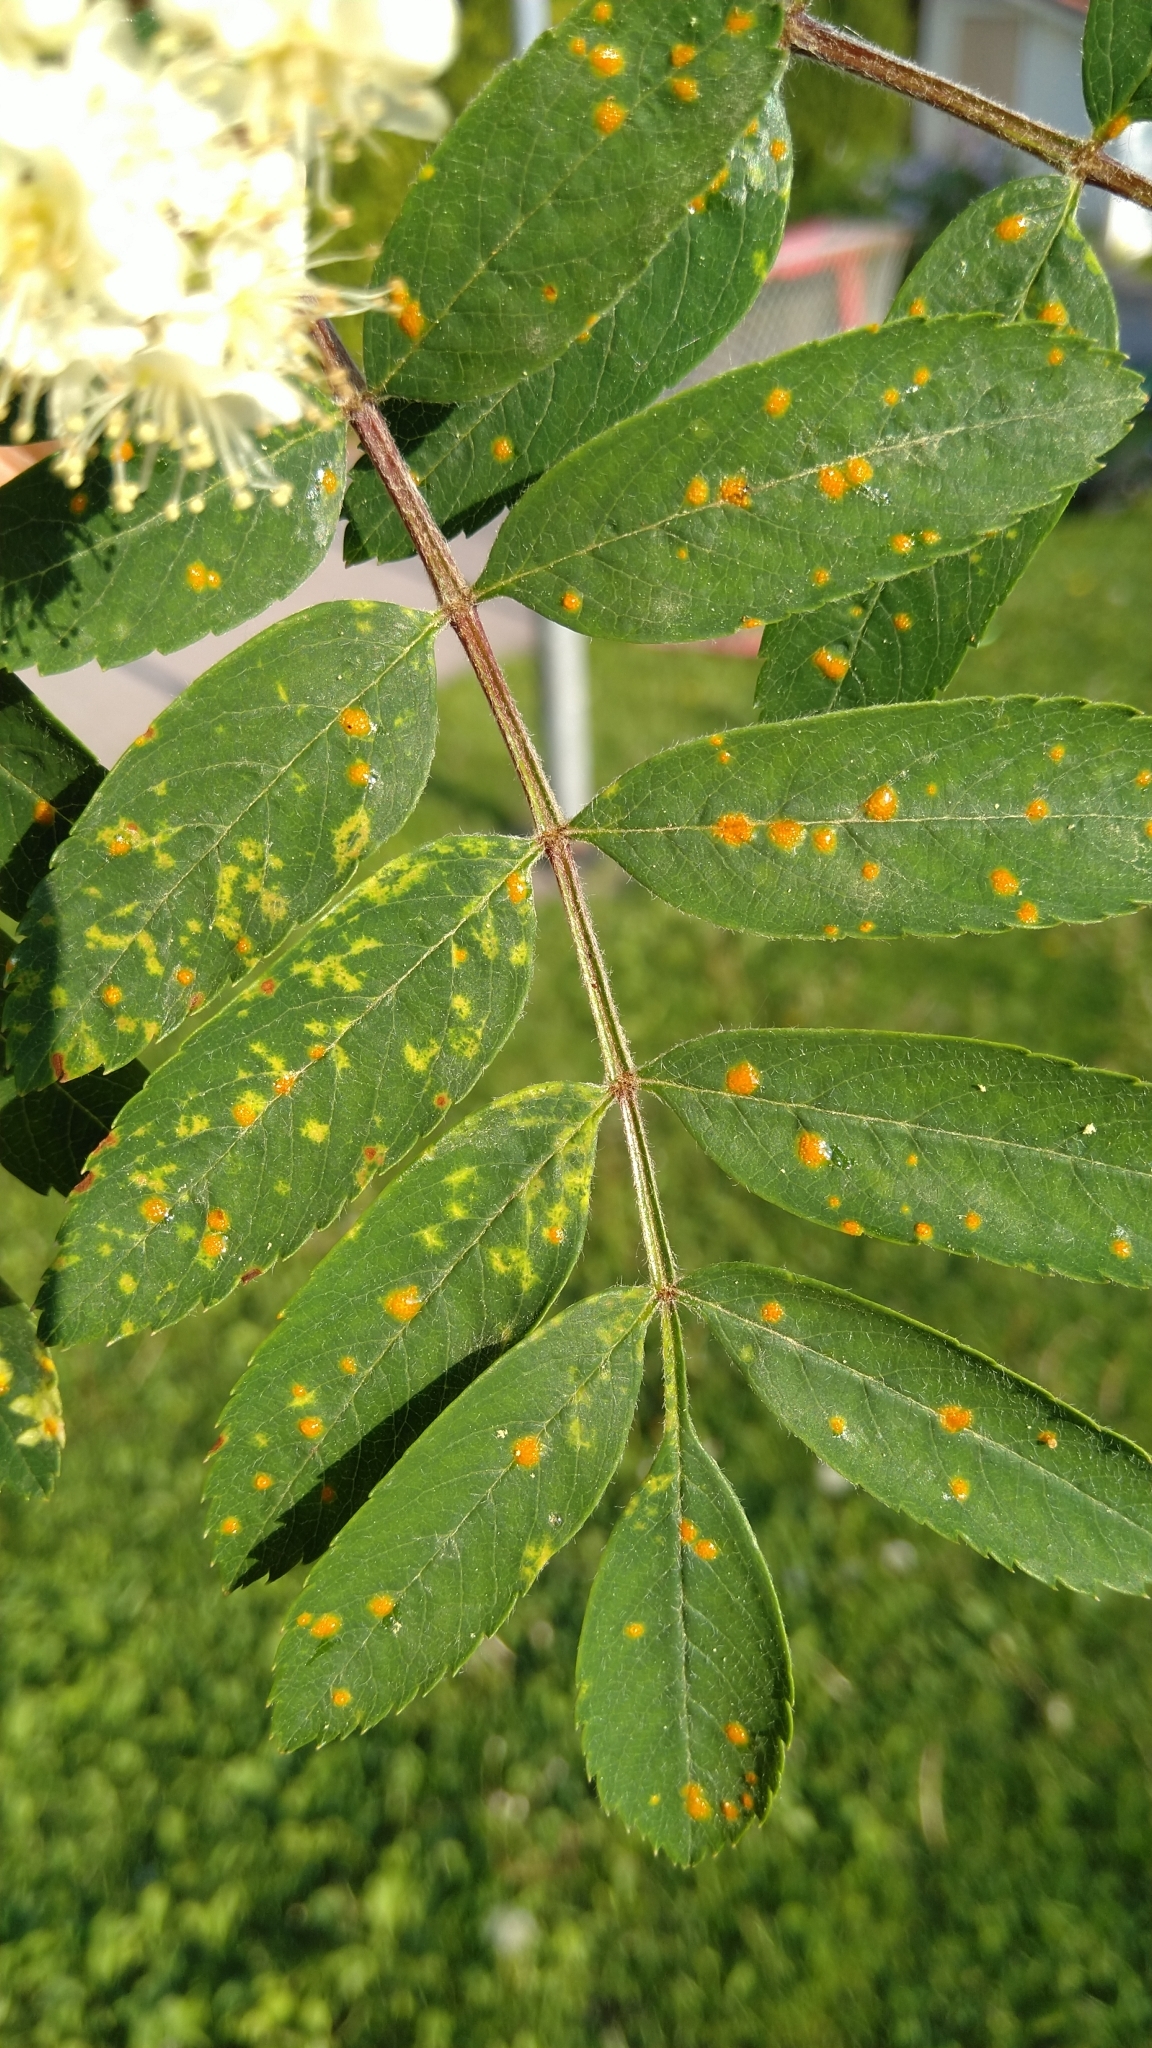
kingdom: Fungi
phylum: Basidiomycota
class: Pucciniomycetes
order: Pucciniales
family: Gymnosporangiaceae
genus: Gymnosporangium
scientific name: Gymnosporangium cornutum
